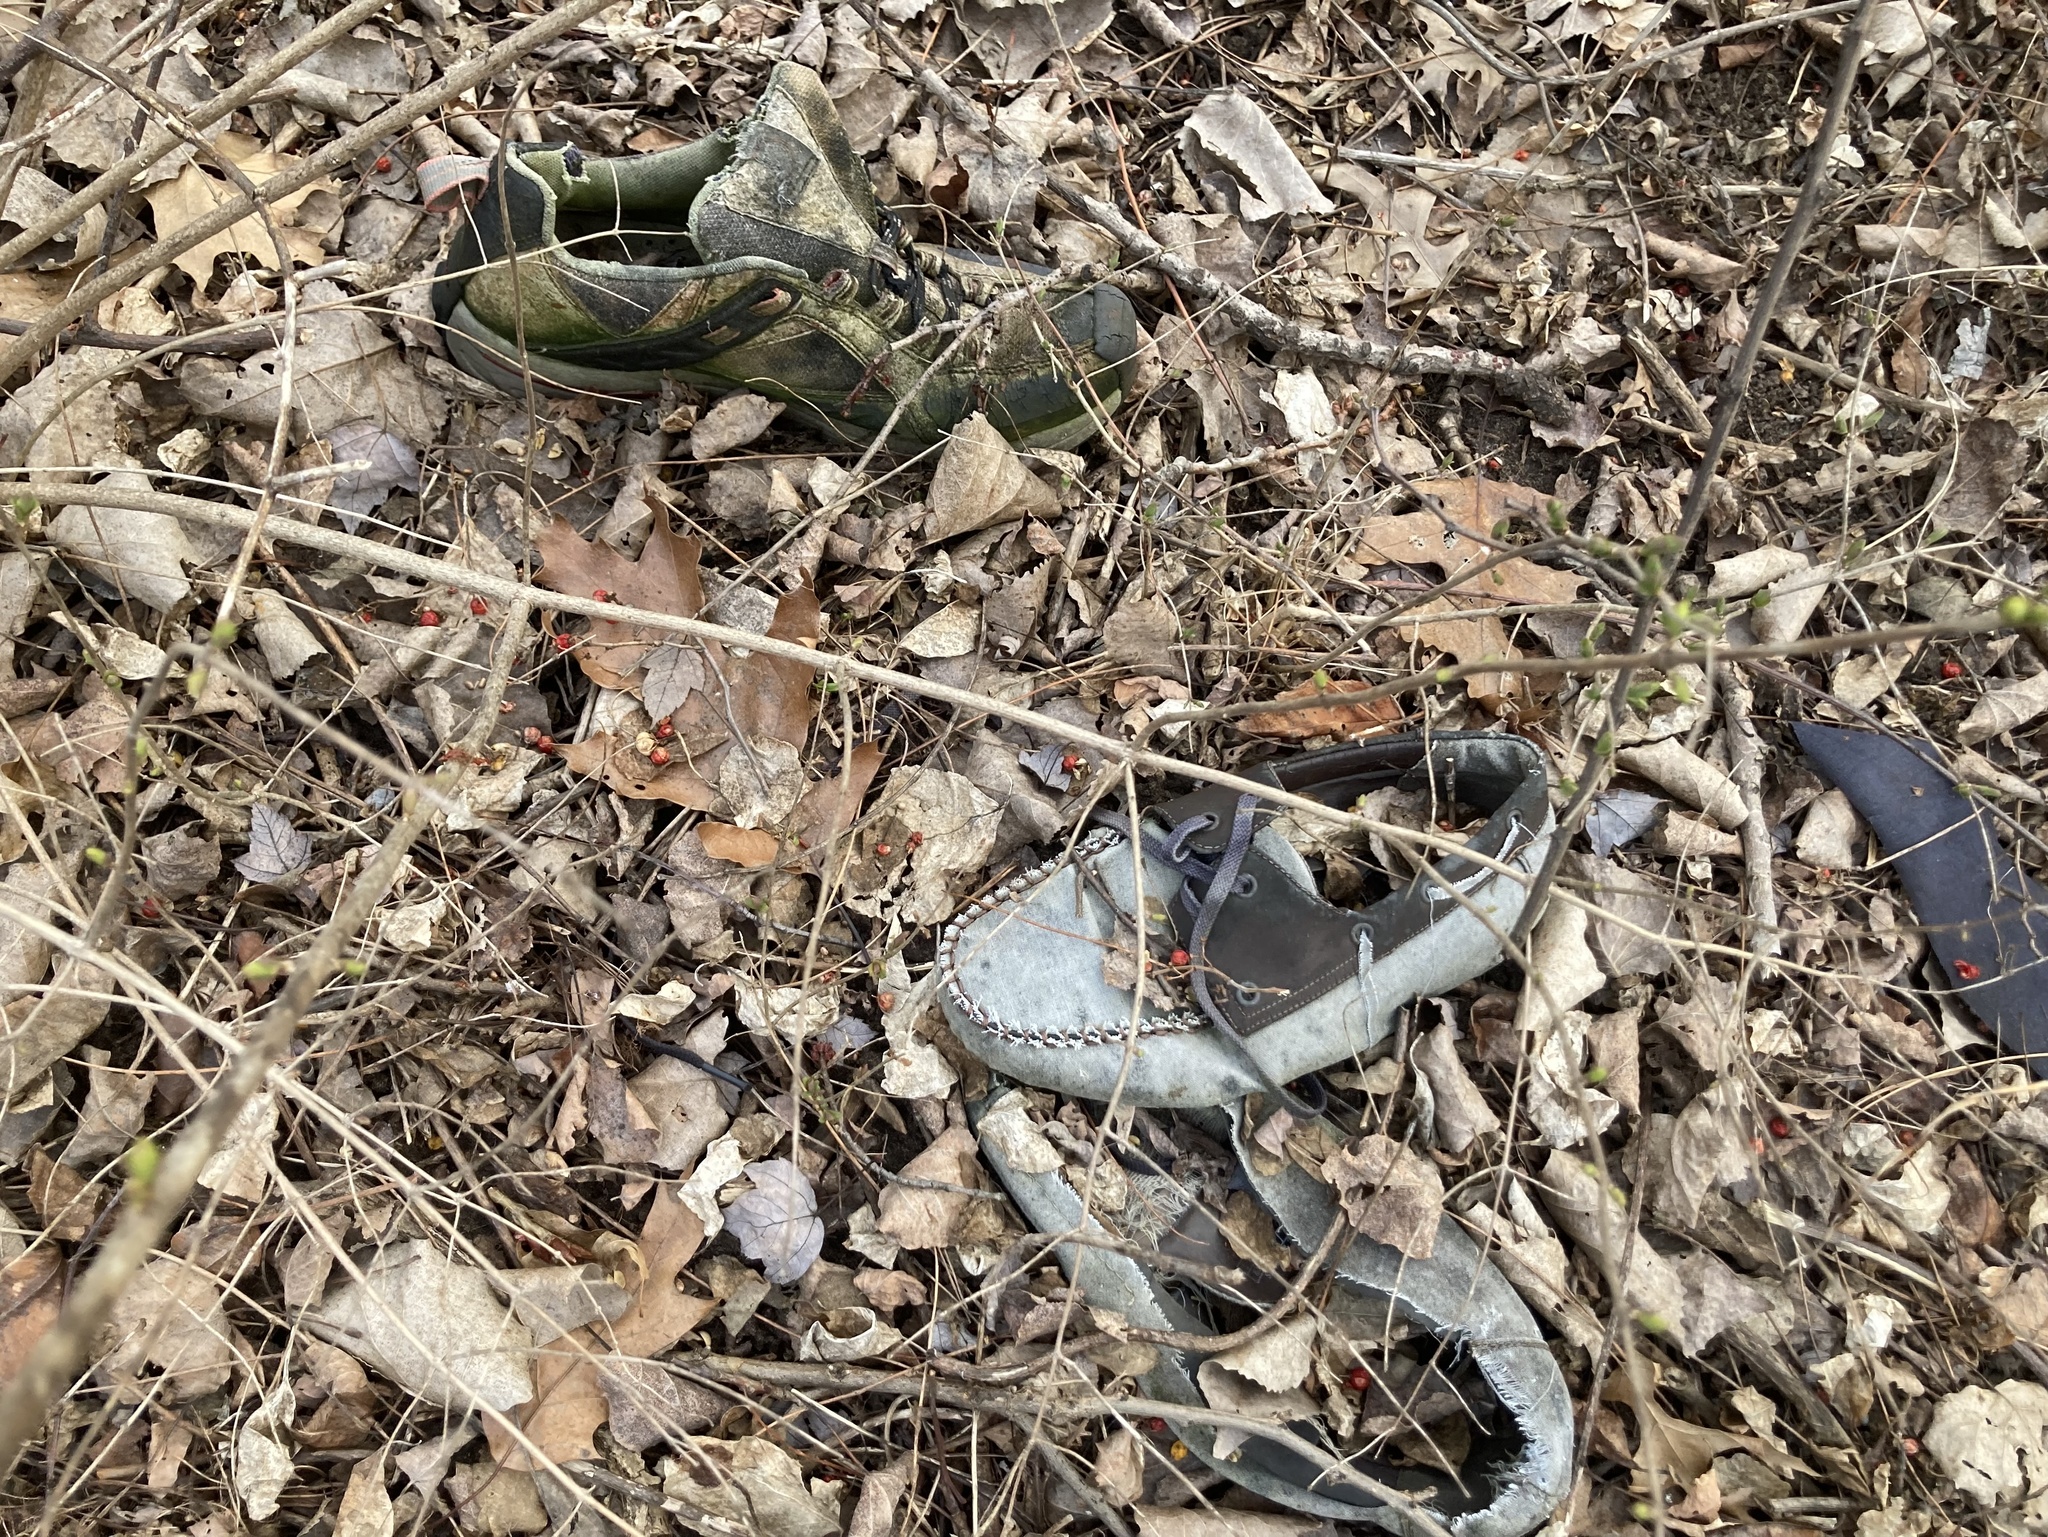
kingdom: Plantae
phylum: Tracheophyta
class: Magnoliopsida
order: Celastrales
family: Celastraceae
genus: Celastrus
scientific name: Celastrus orbiculatus
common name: Oriental bittersweet
